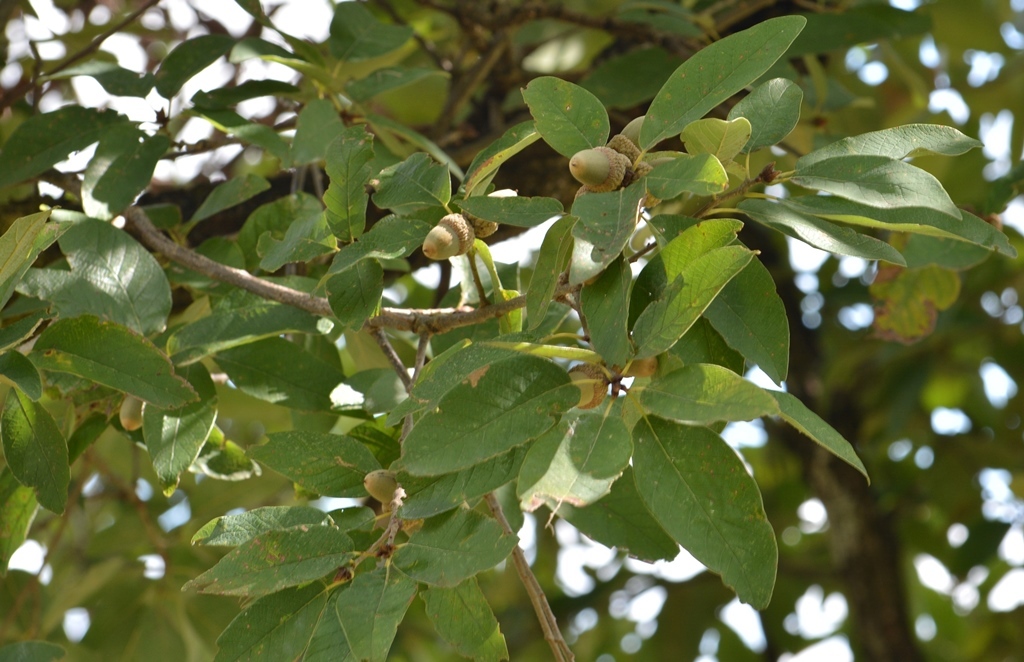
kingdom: Plantae
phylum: Tracheophyta
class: Magnoliopsida
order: Fagales
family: Fagaceae
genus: Quercus
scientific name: Quercus polymorpha
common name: Mexican white oak
